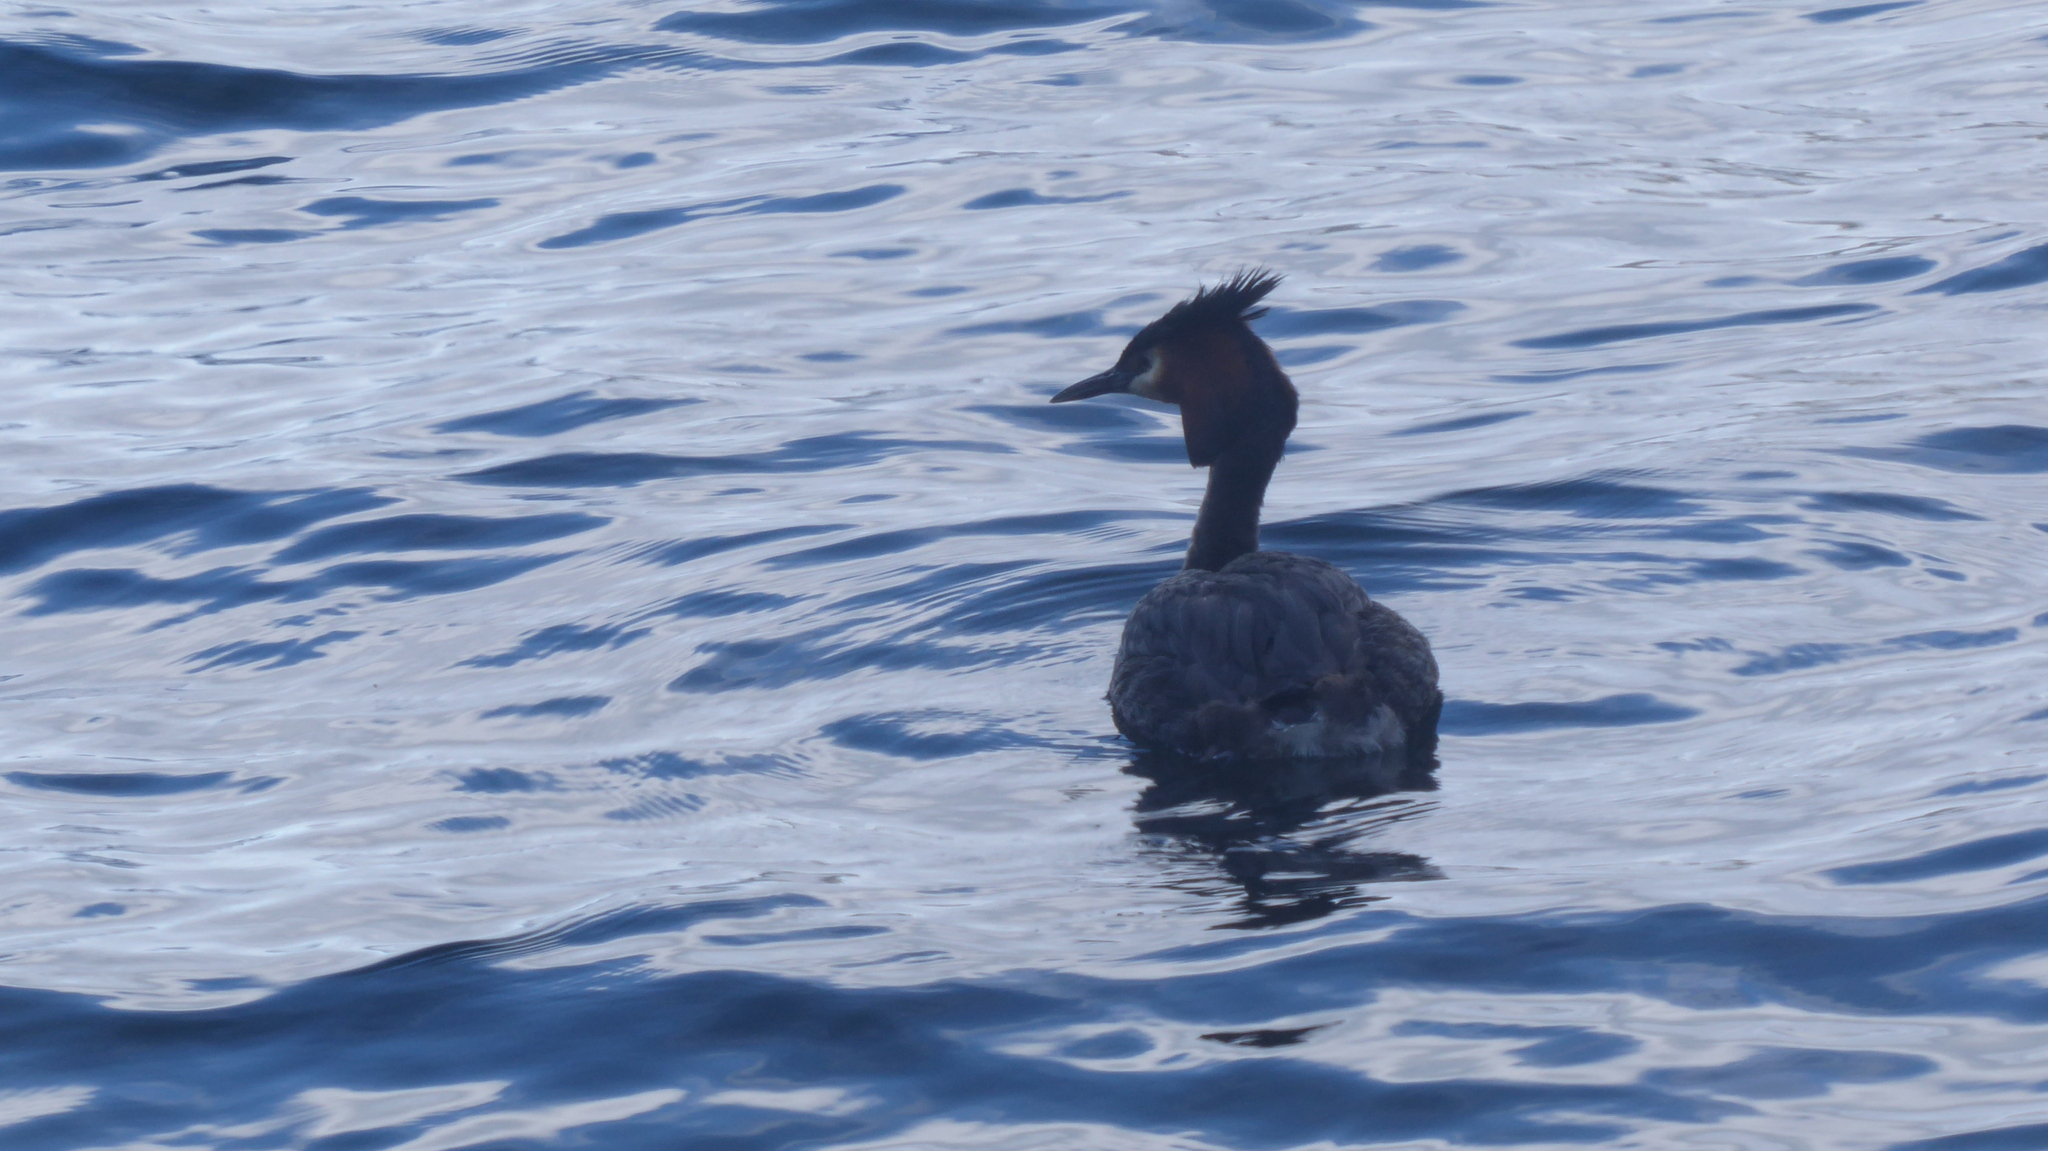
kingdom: Animalia
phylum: Chordata
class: Aves
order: Podicipediformes
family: Podicipedidae
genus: Podiceps
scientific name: Podiceps cristatus
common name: Great crested grebe
